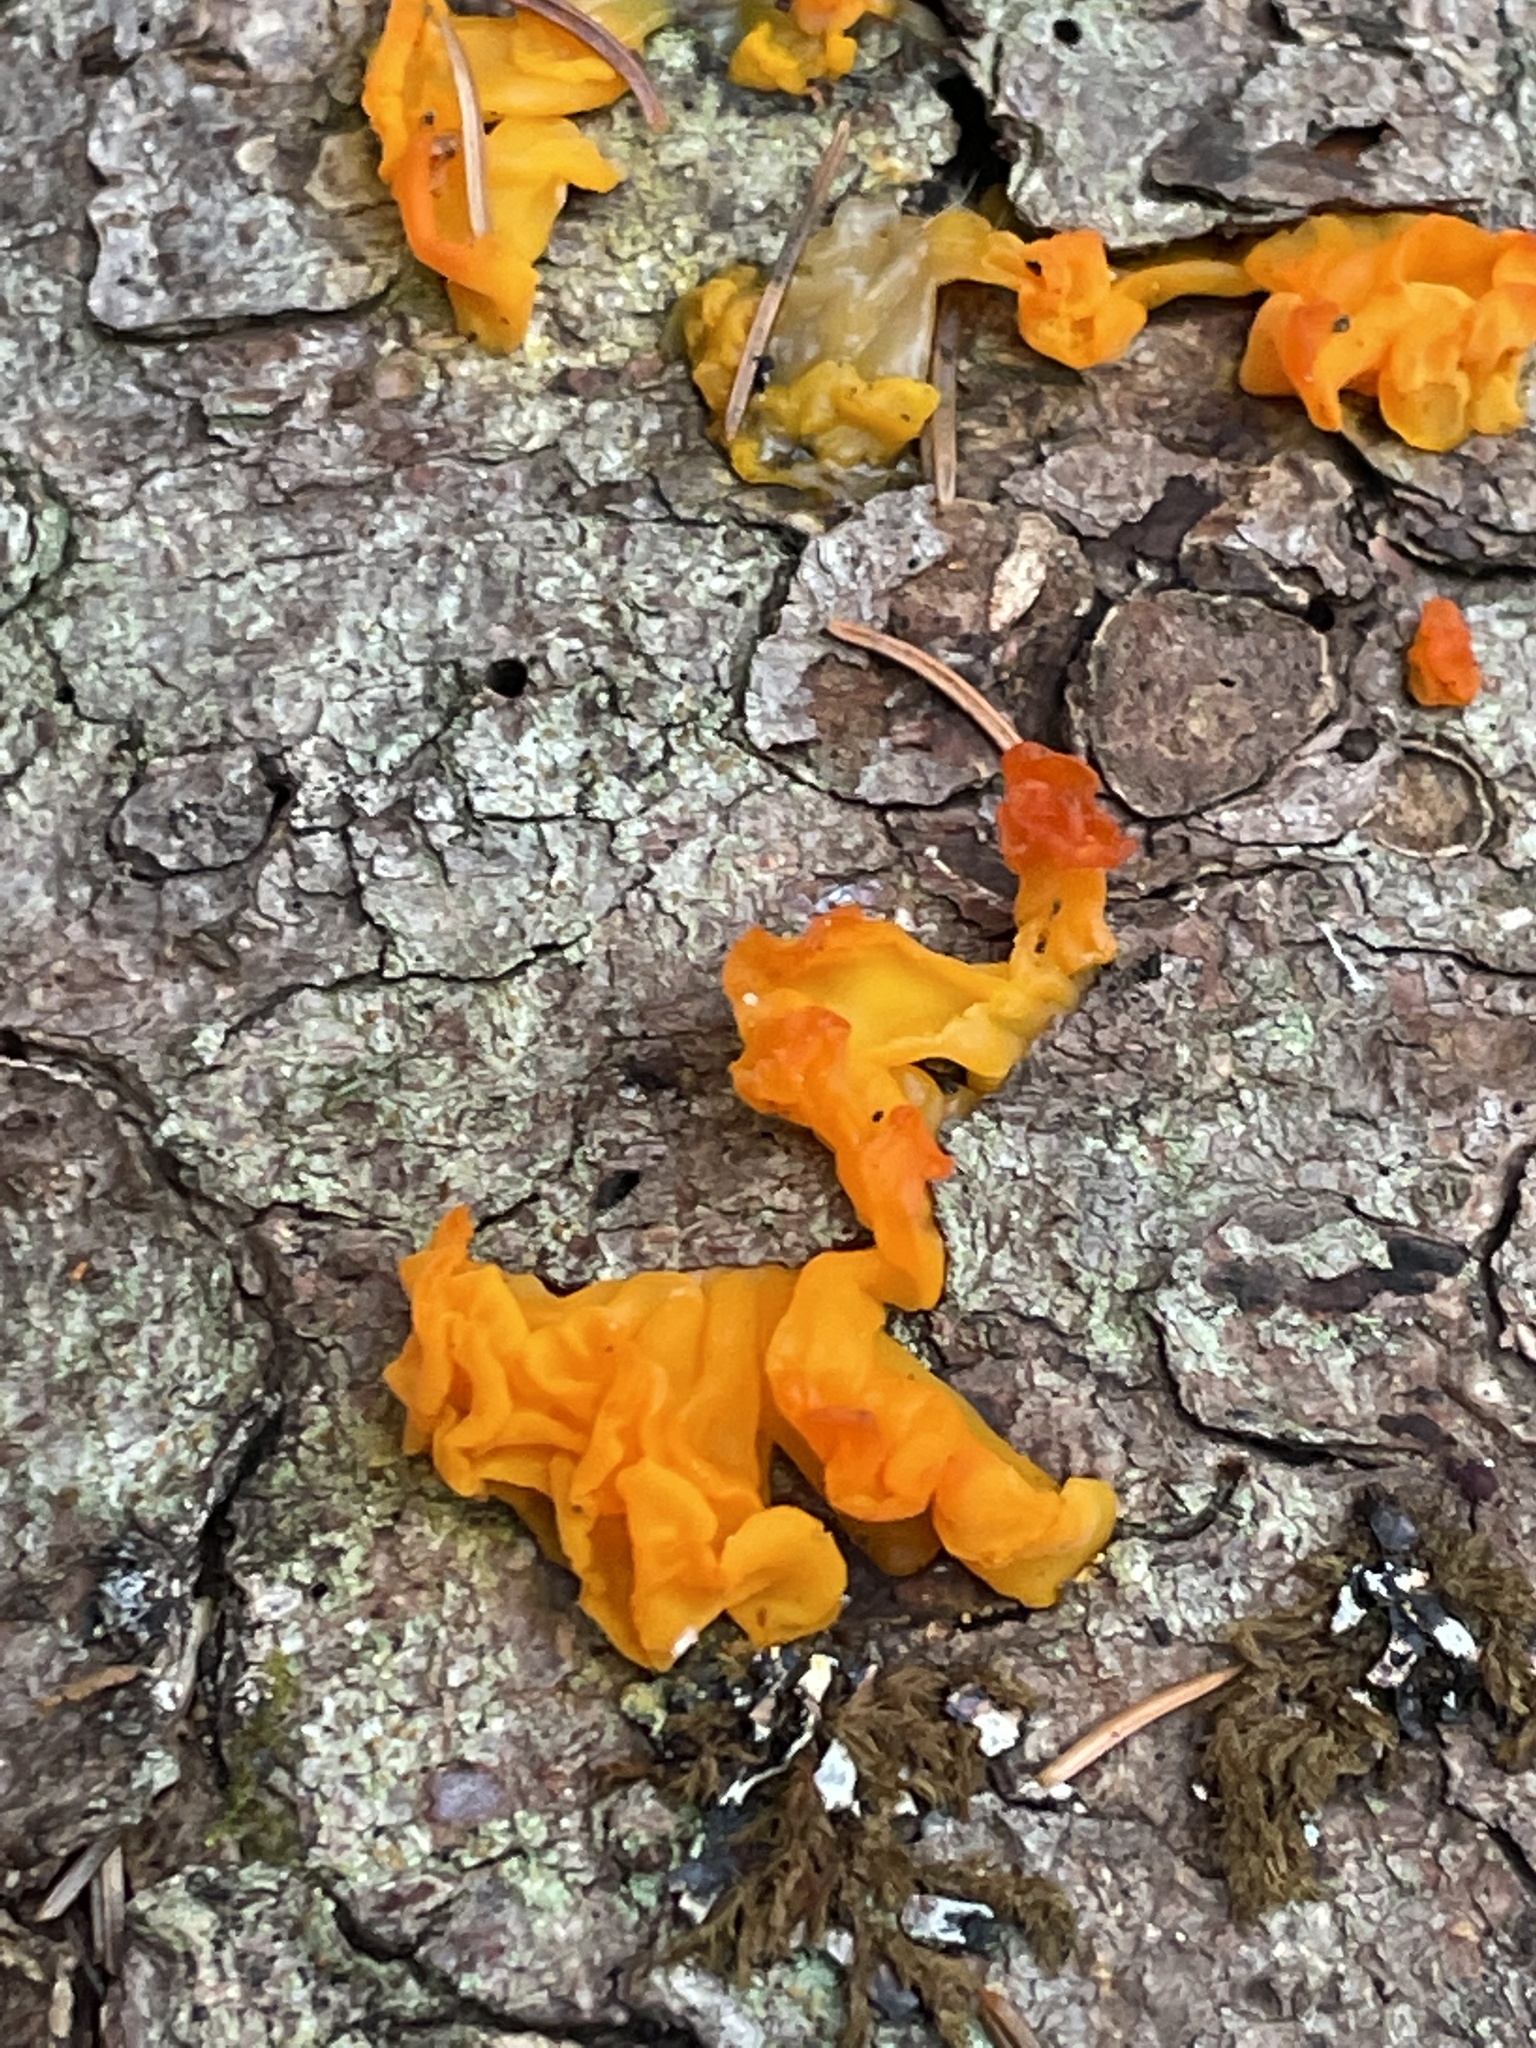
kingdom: Fungi
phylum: Basidiomycota
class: Dacrymycetes
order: Dacrymycetales
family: Dacrymycetaceae
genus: Dacrymyces
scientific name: Dacrymyces chrysospermus
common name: Orange jelly spot
